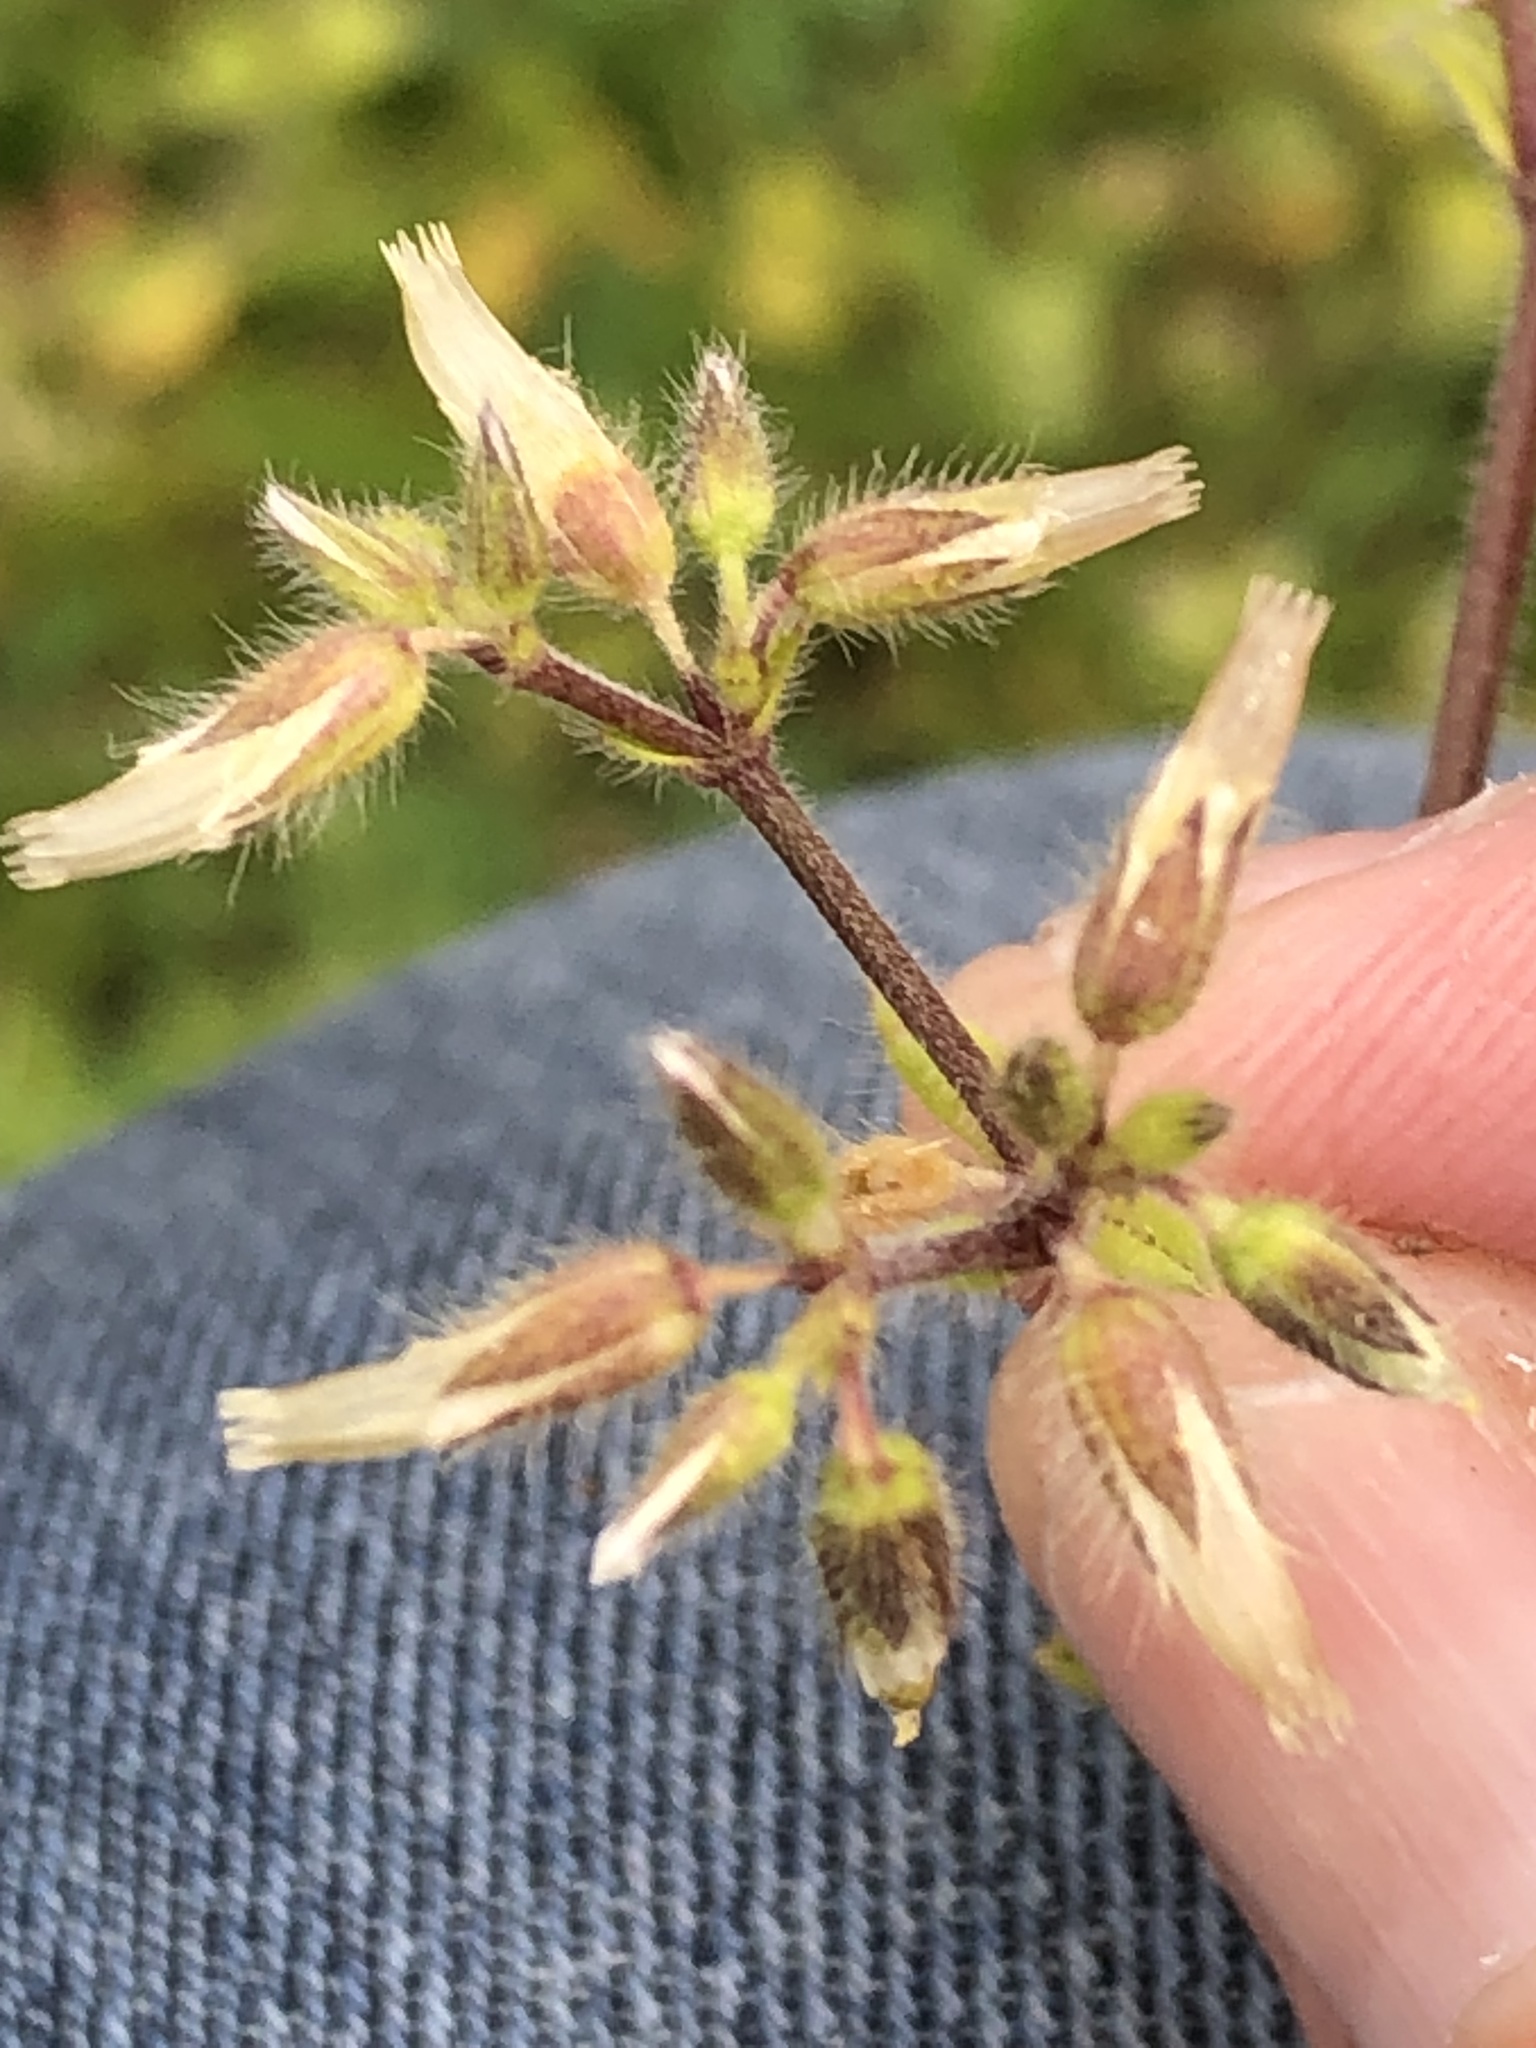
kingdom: Plantae
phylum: Tracheophyta
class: Magnoliopsida
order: Caryophyllales
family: Caryophyllaceae
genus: Cerastium
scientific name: Cerastium glomeratum
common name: Sticky chickweed
